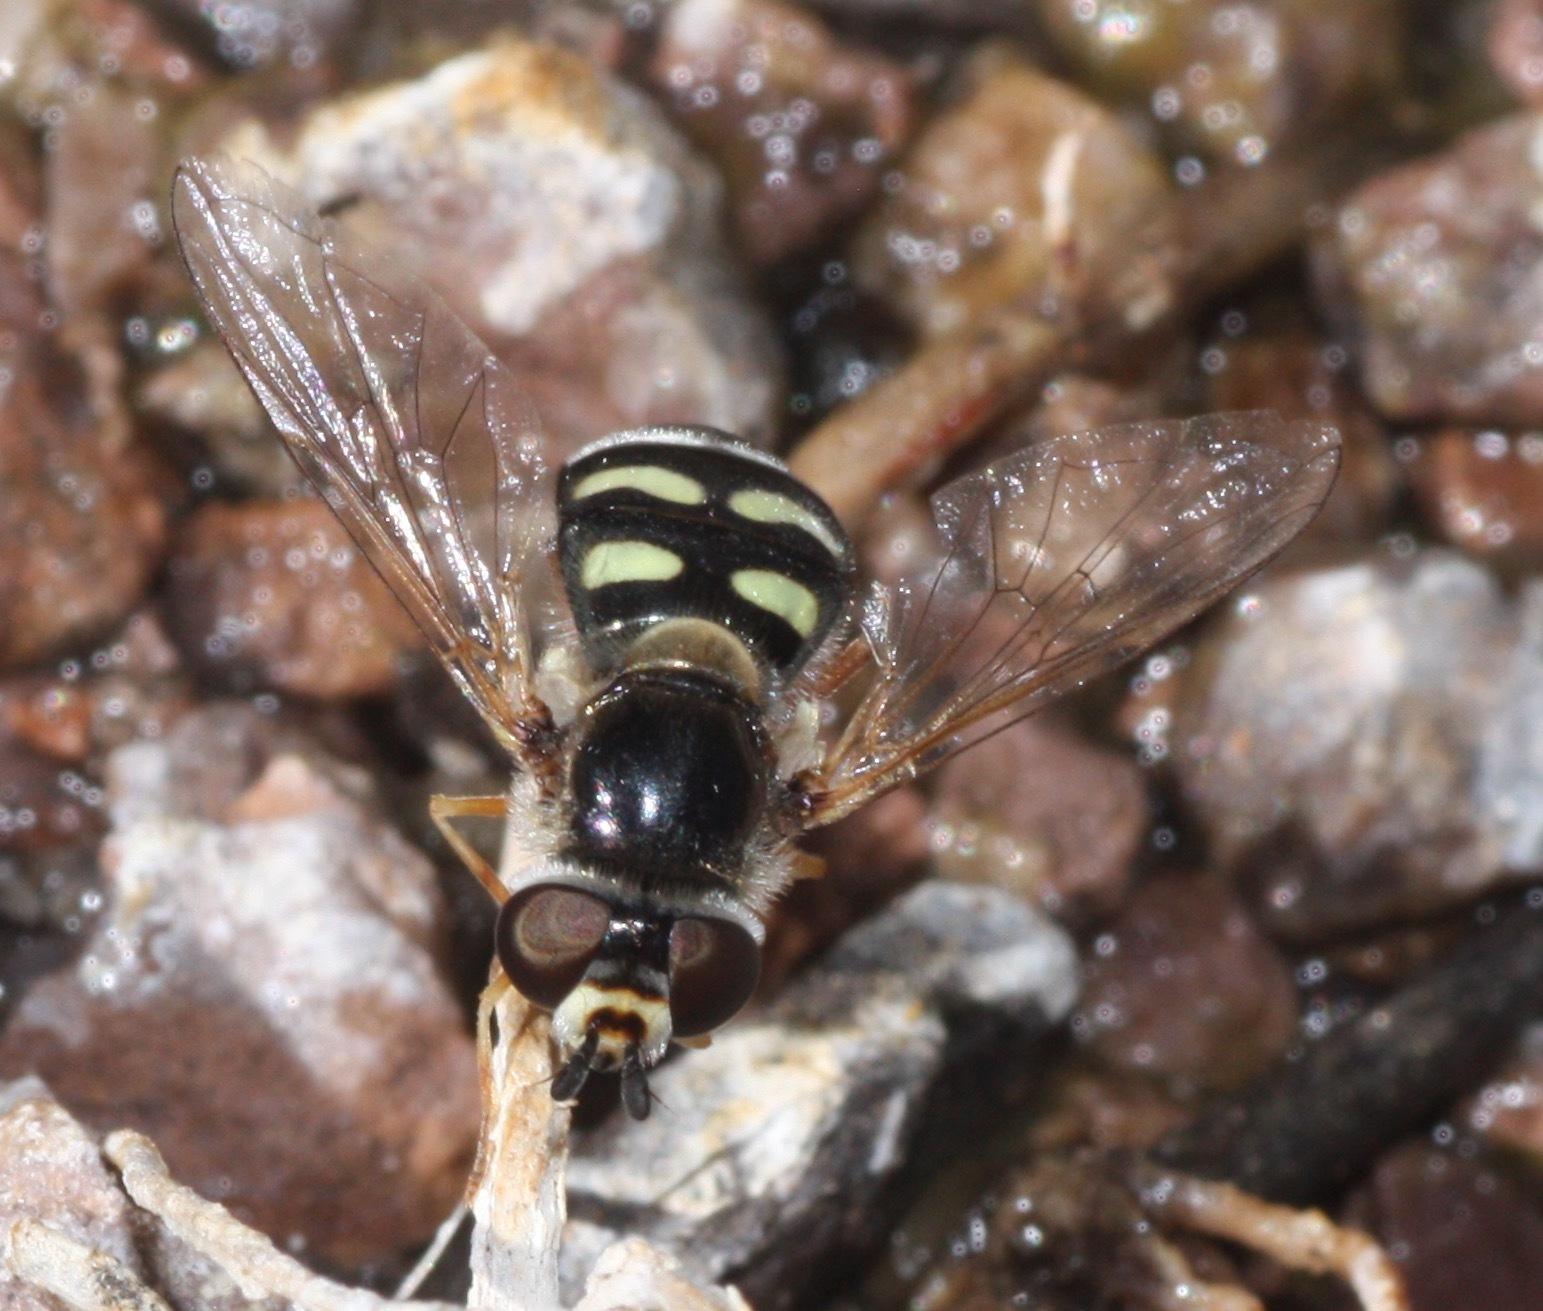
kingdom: Animalia
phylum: Arthropoda
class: Insecta
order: Diptera
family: Syrphidae
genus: Eupeodes
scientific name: Eupeodes volucris
